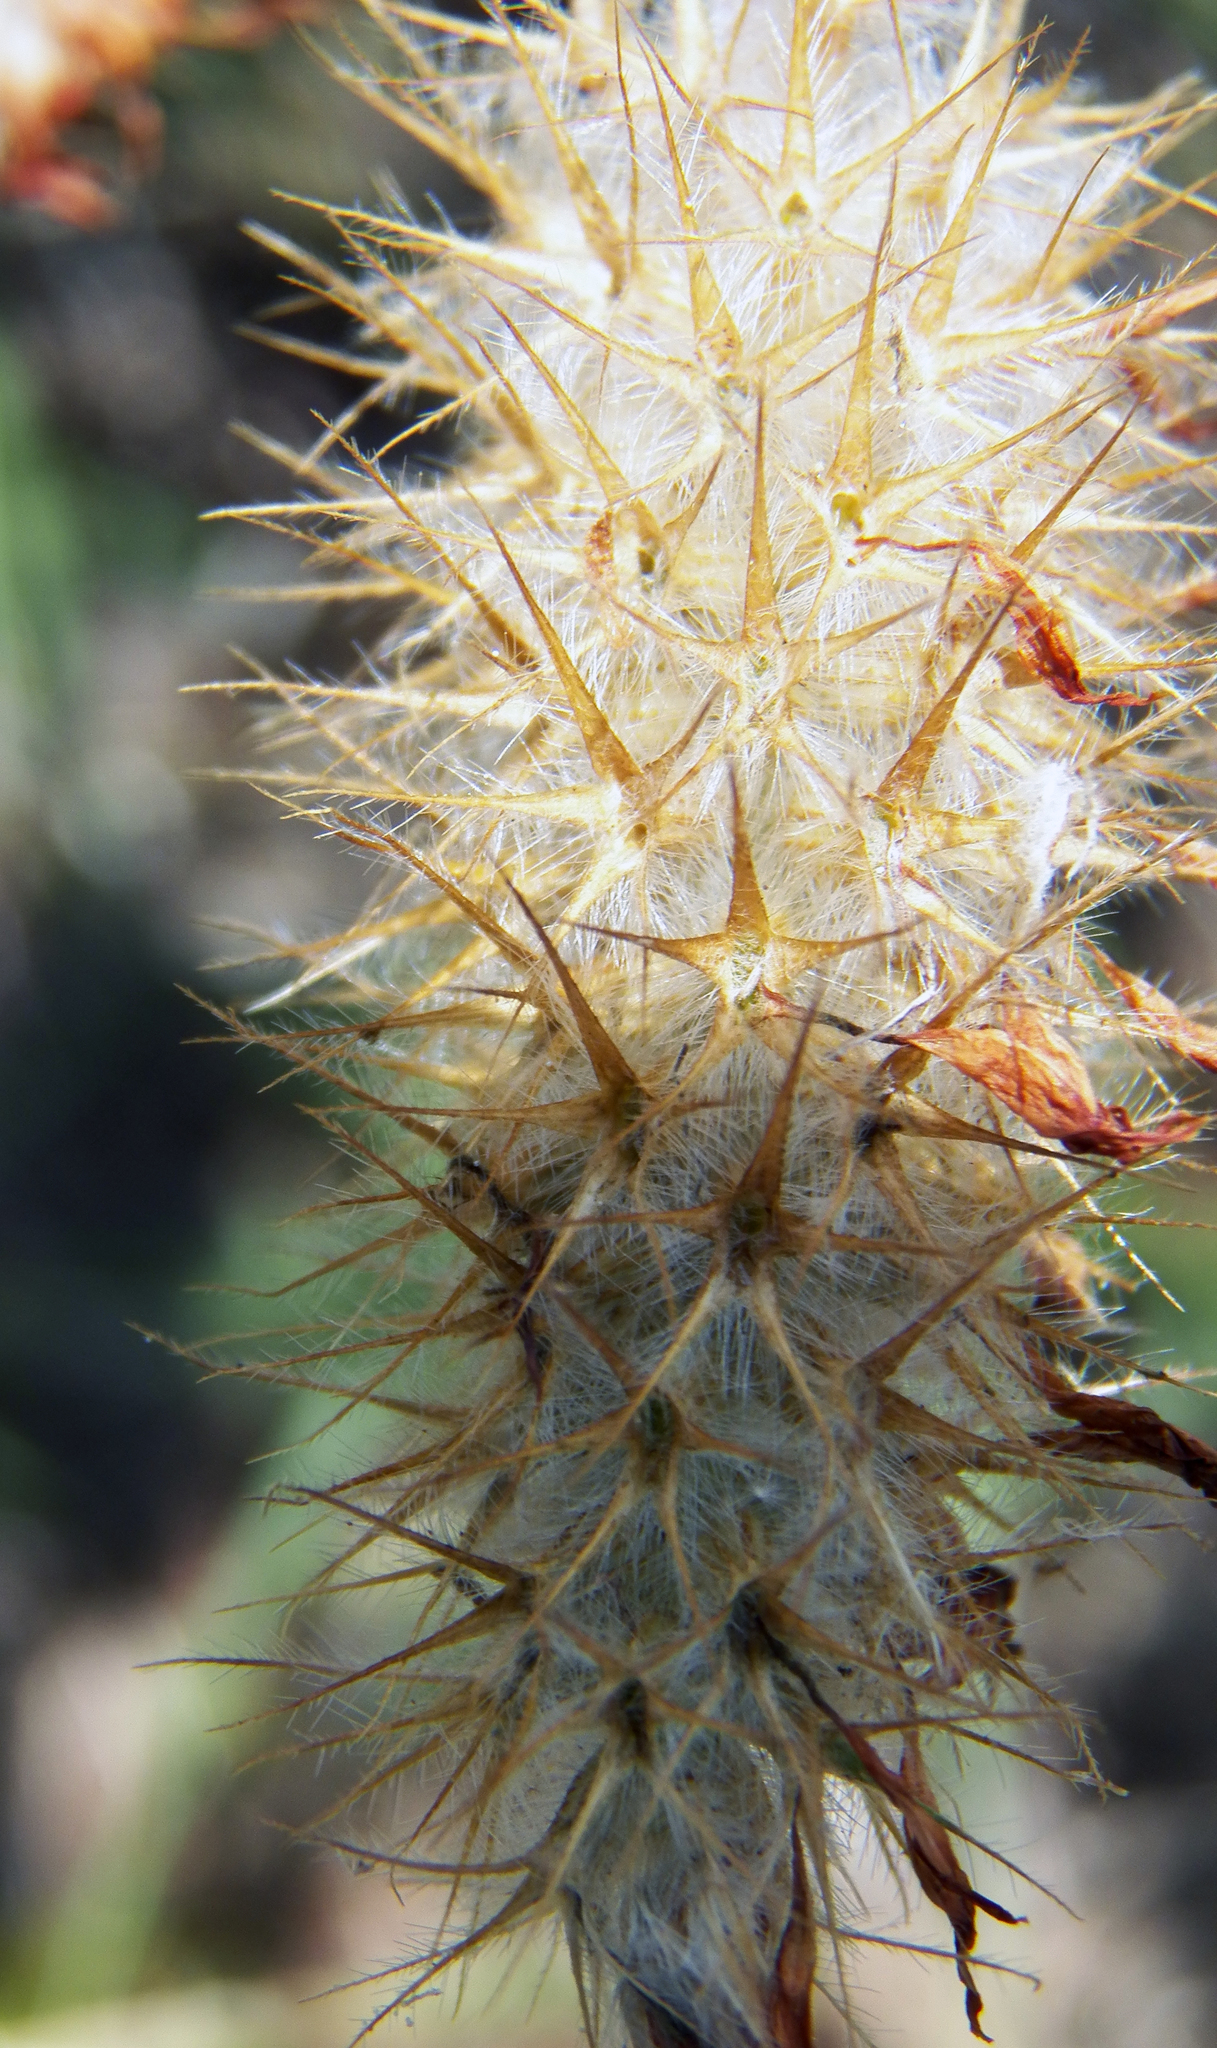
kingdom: Plantae
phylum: Tracheophyta
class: Magnoliopsida
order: Fabales
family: Fabaceae
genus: Trifolium
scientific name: Trifolium incarnatum
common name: Crimson clover
